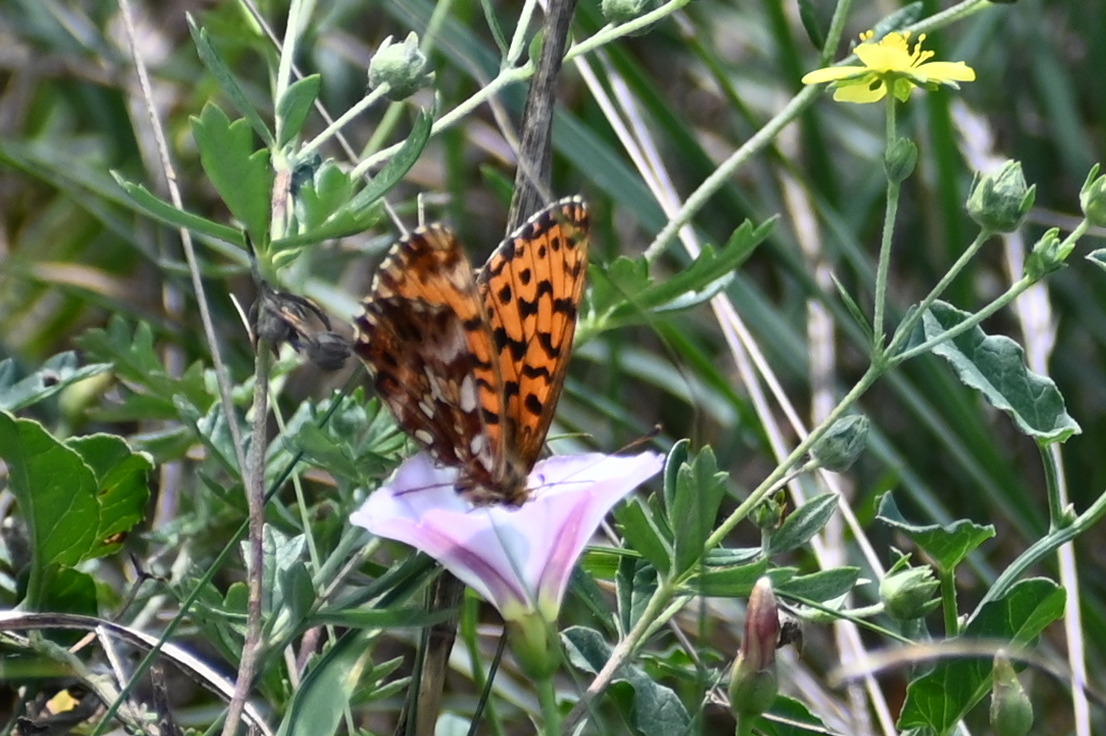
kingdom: Animalia
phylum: Arthropoda
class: Insecta
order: Lepidoptera
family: Nymphalidae
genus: Boloria
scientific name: Boloria dia
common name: Weaver's fritillary
